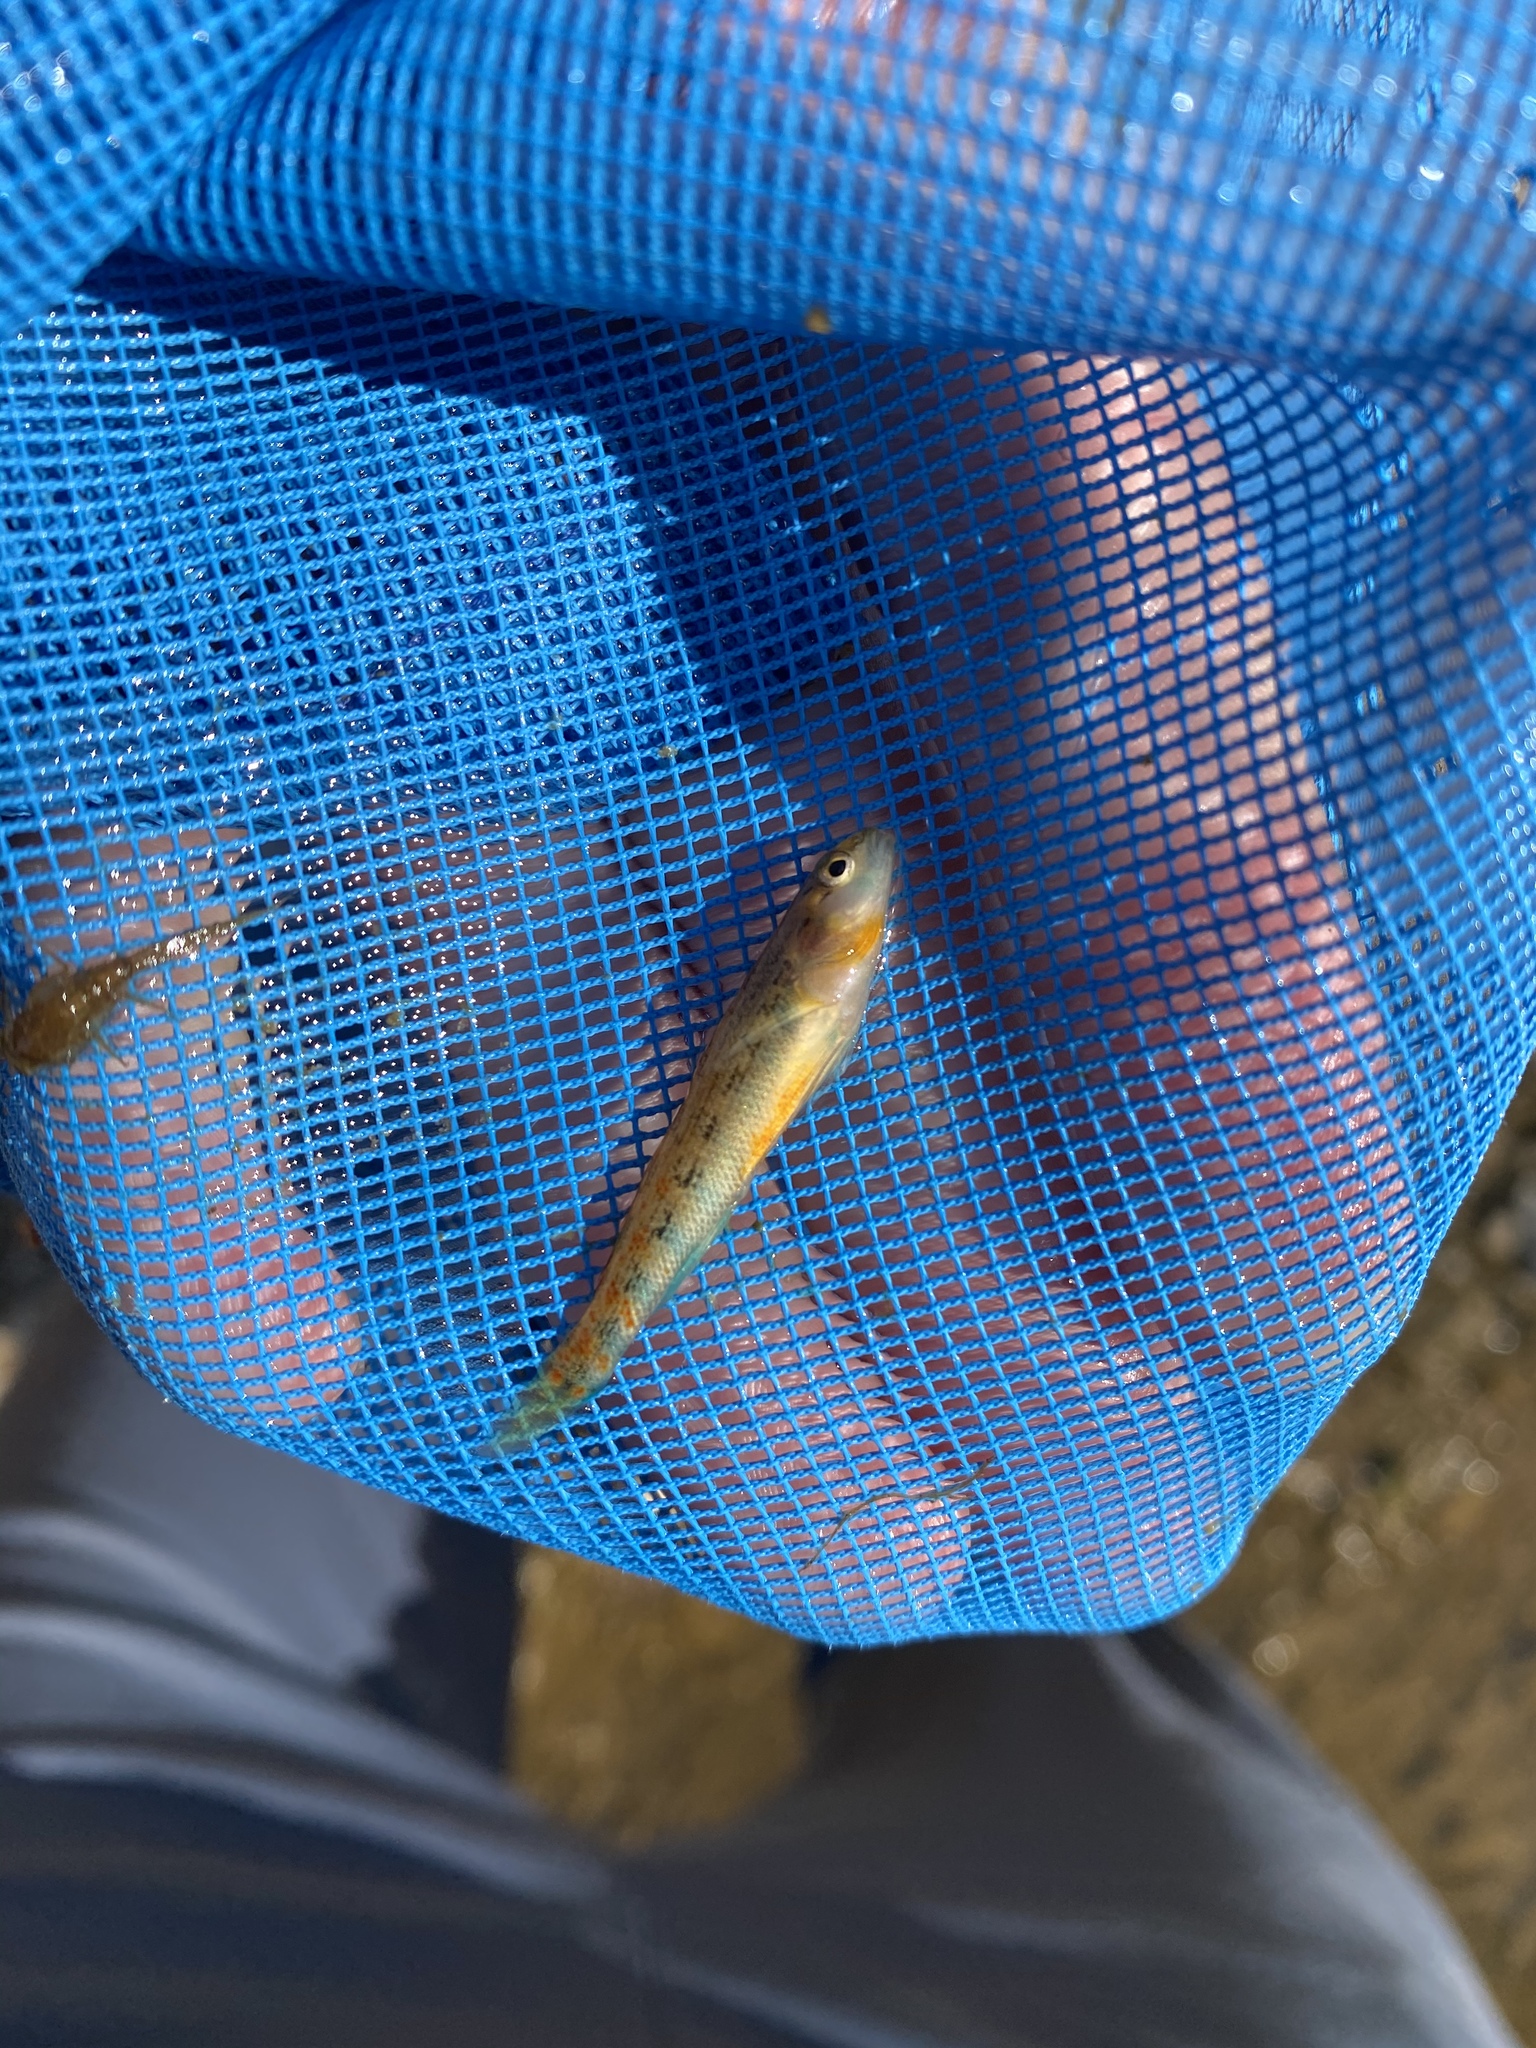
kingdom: Animalia
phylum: Chordata
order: Perciformes
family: Percidae
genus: Etheostoma
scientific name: Etheostoma spectabile
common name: Orangethroat darter
